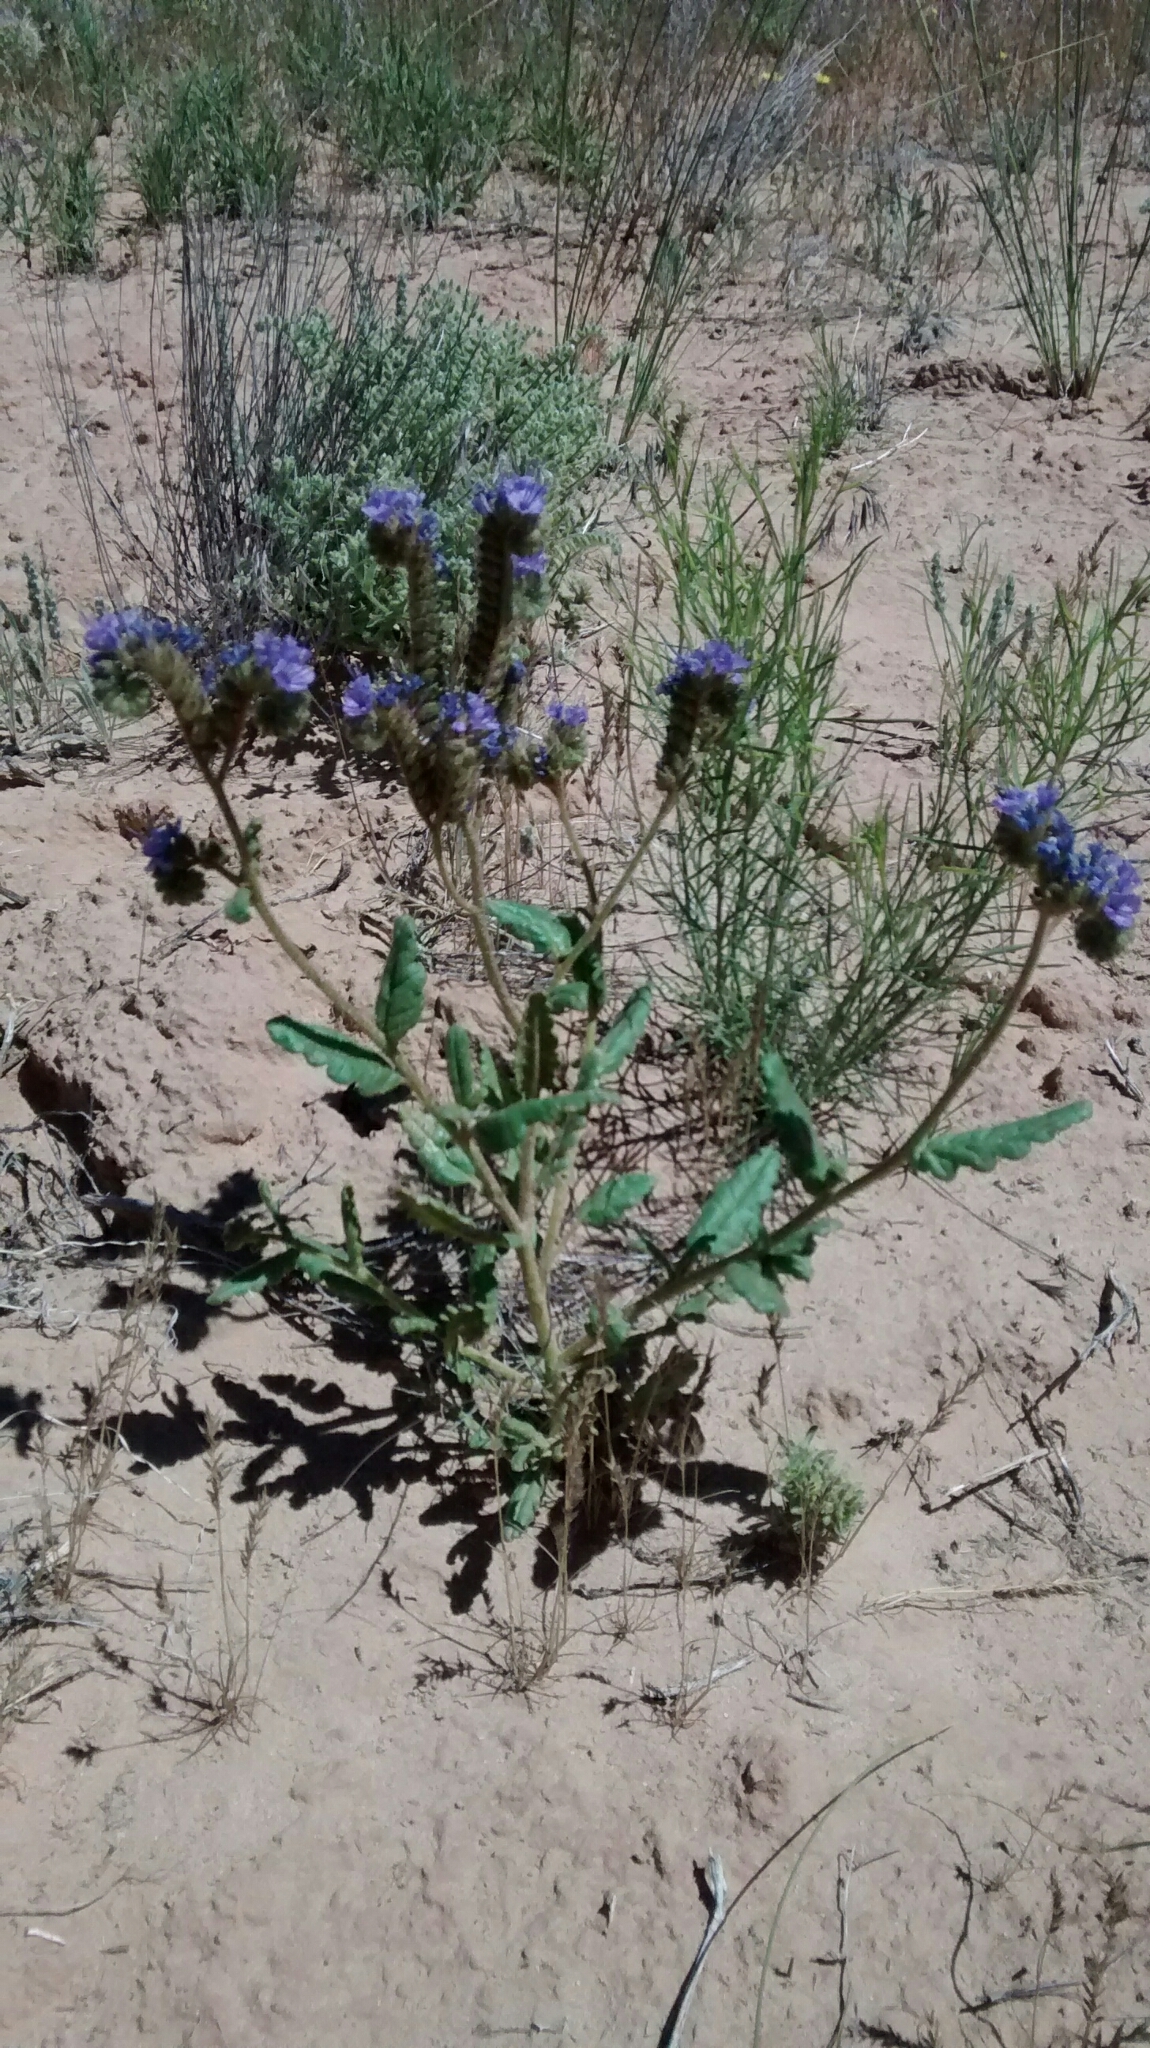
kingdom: Plantae
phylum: Tracheophyta
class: Magnoliopsida
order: Boraginales
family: Hydrophyllaceae
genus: Phacelia
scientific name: Phacelia crenulata
